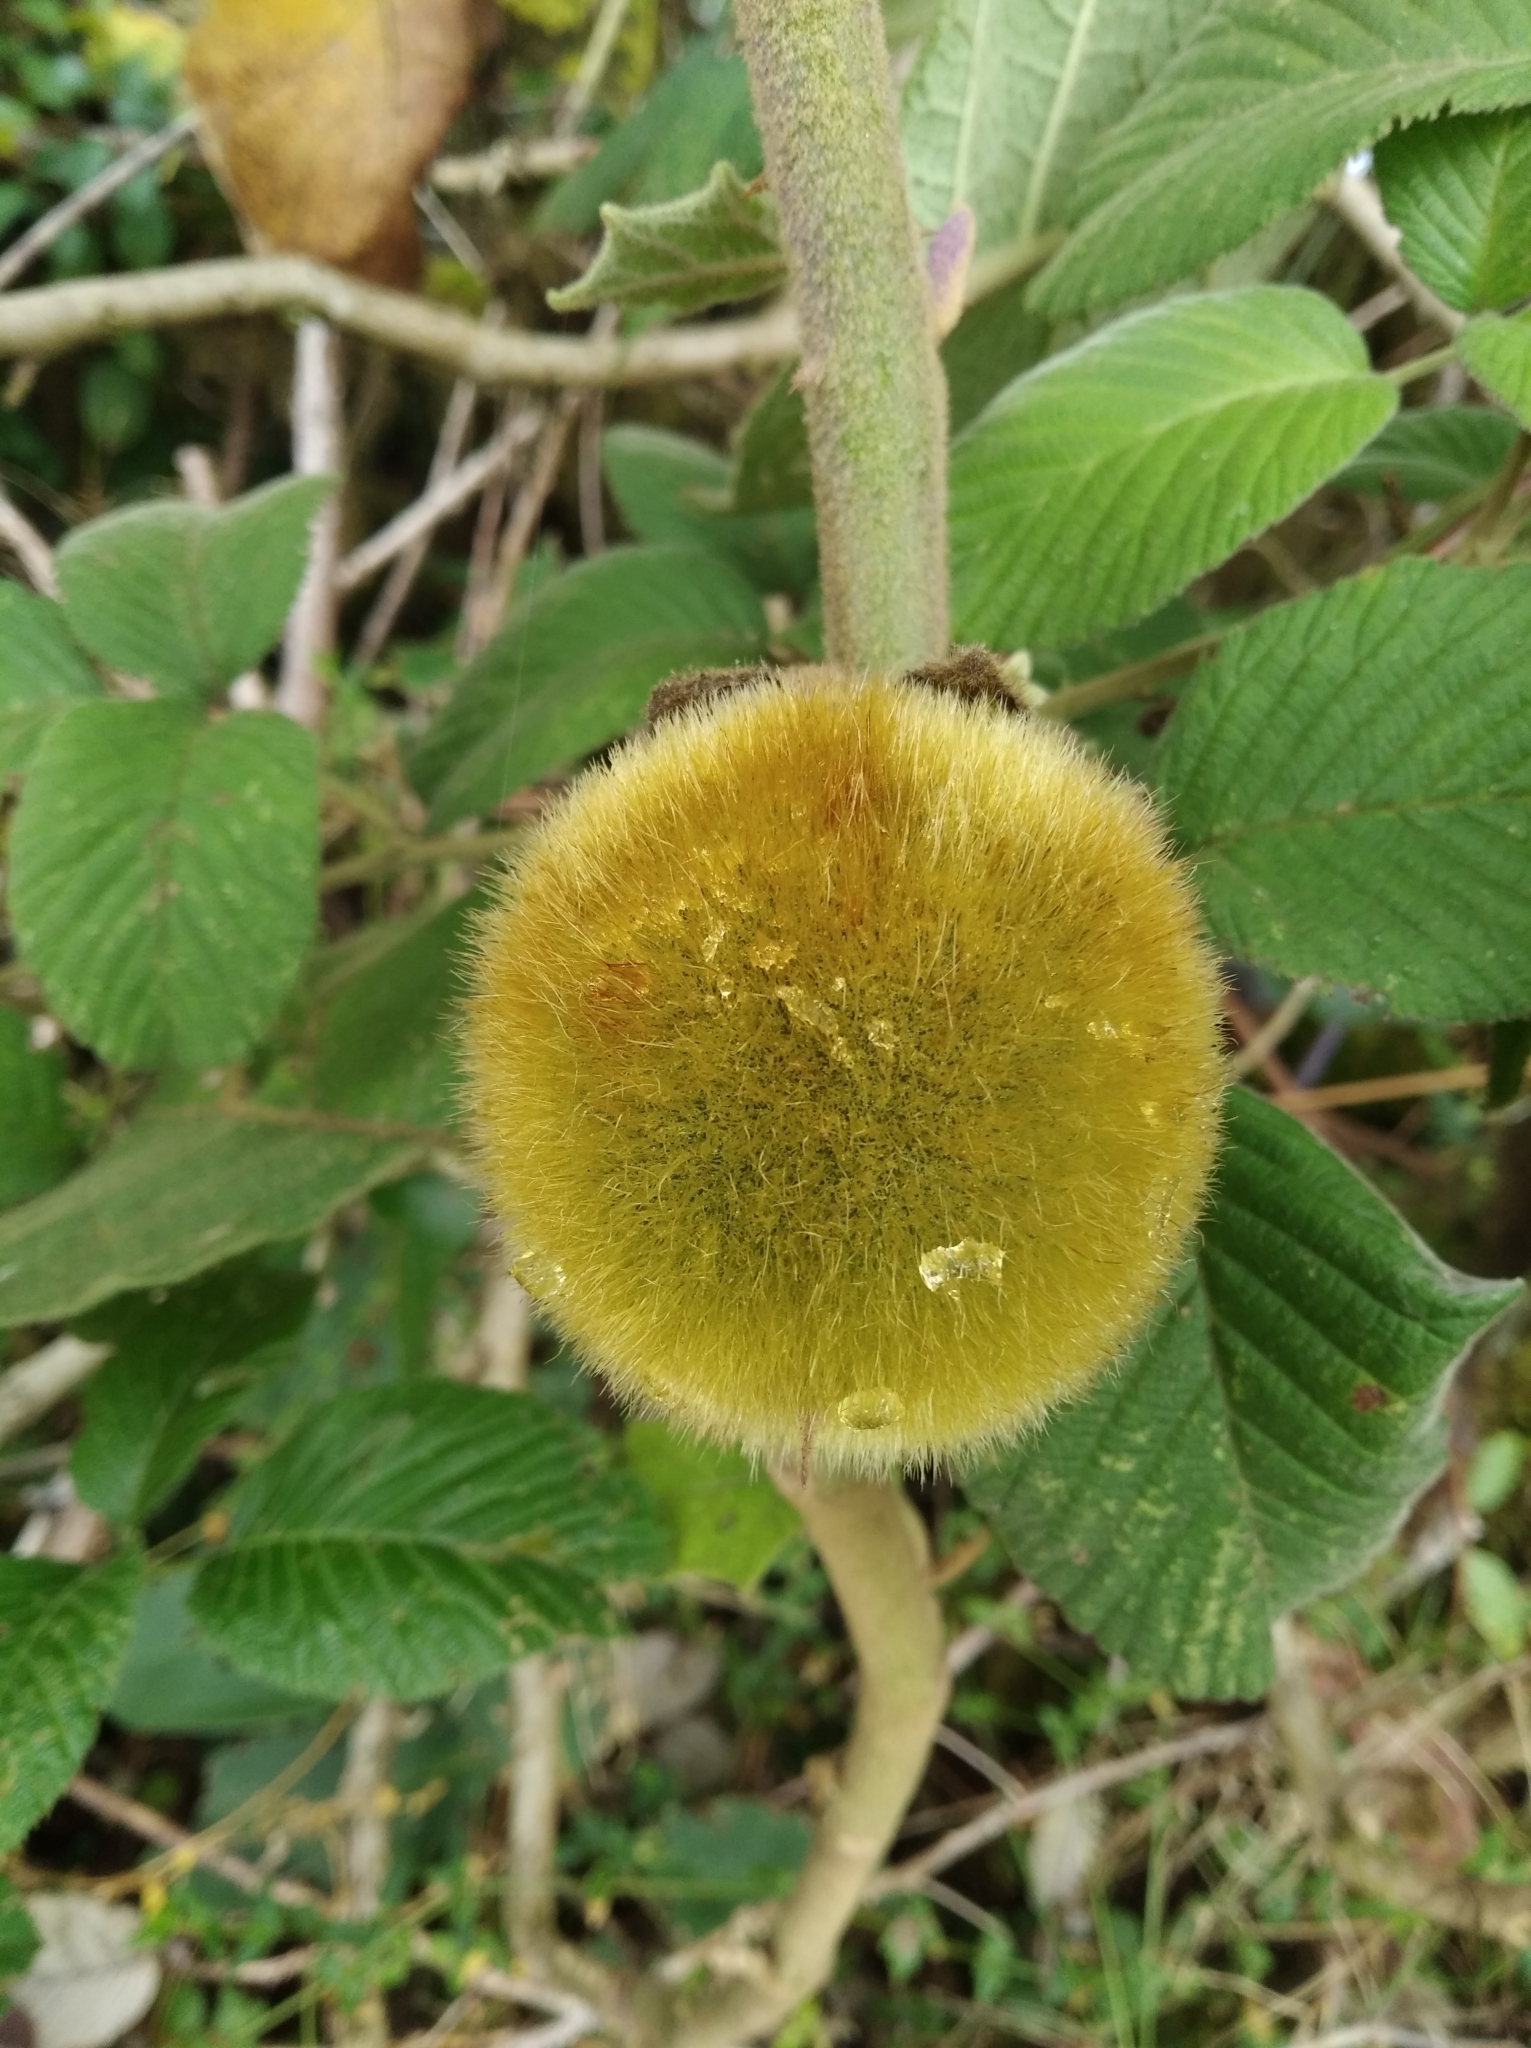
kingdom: Plantae
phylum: Tracheophyta
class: Magnoliopsida
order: Solanales
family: Solanaceae
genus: Solanum
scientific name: Solanum quitoense
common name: Quito-orange
